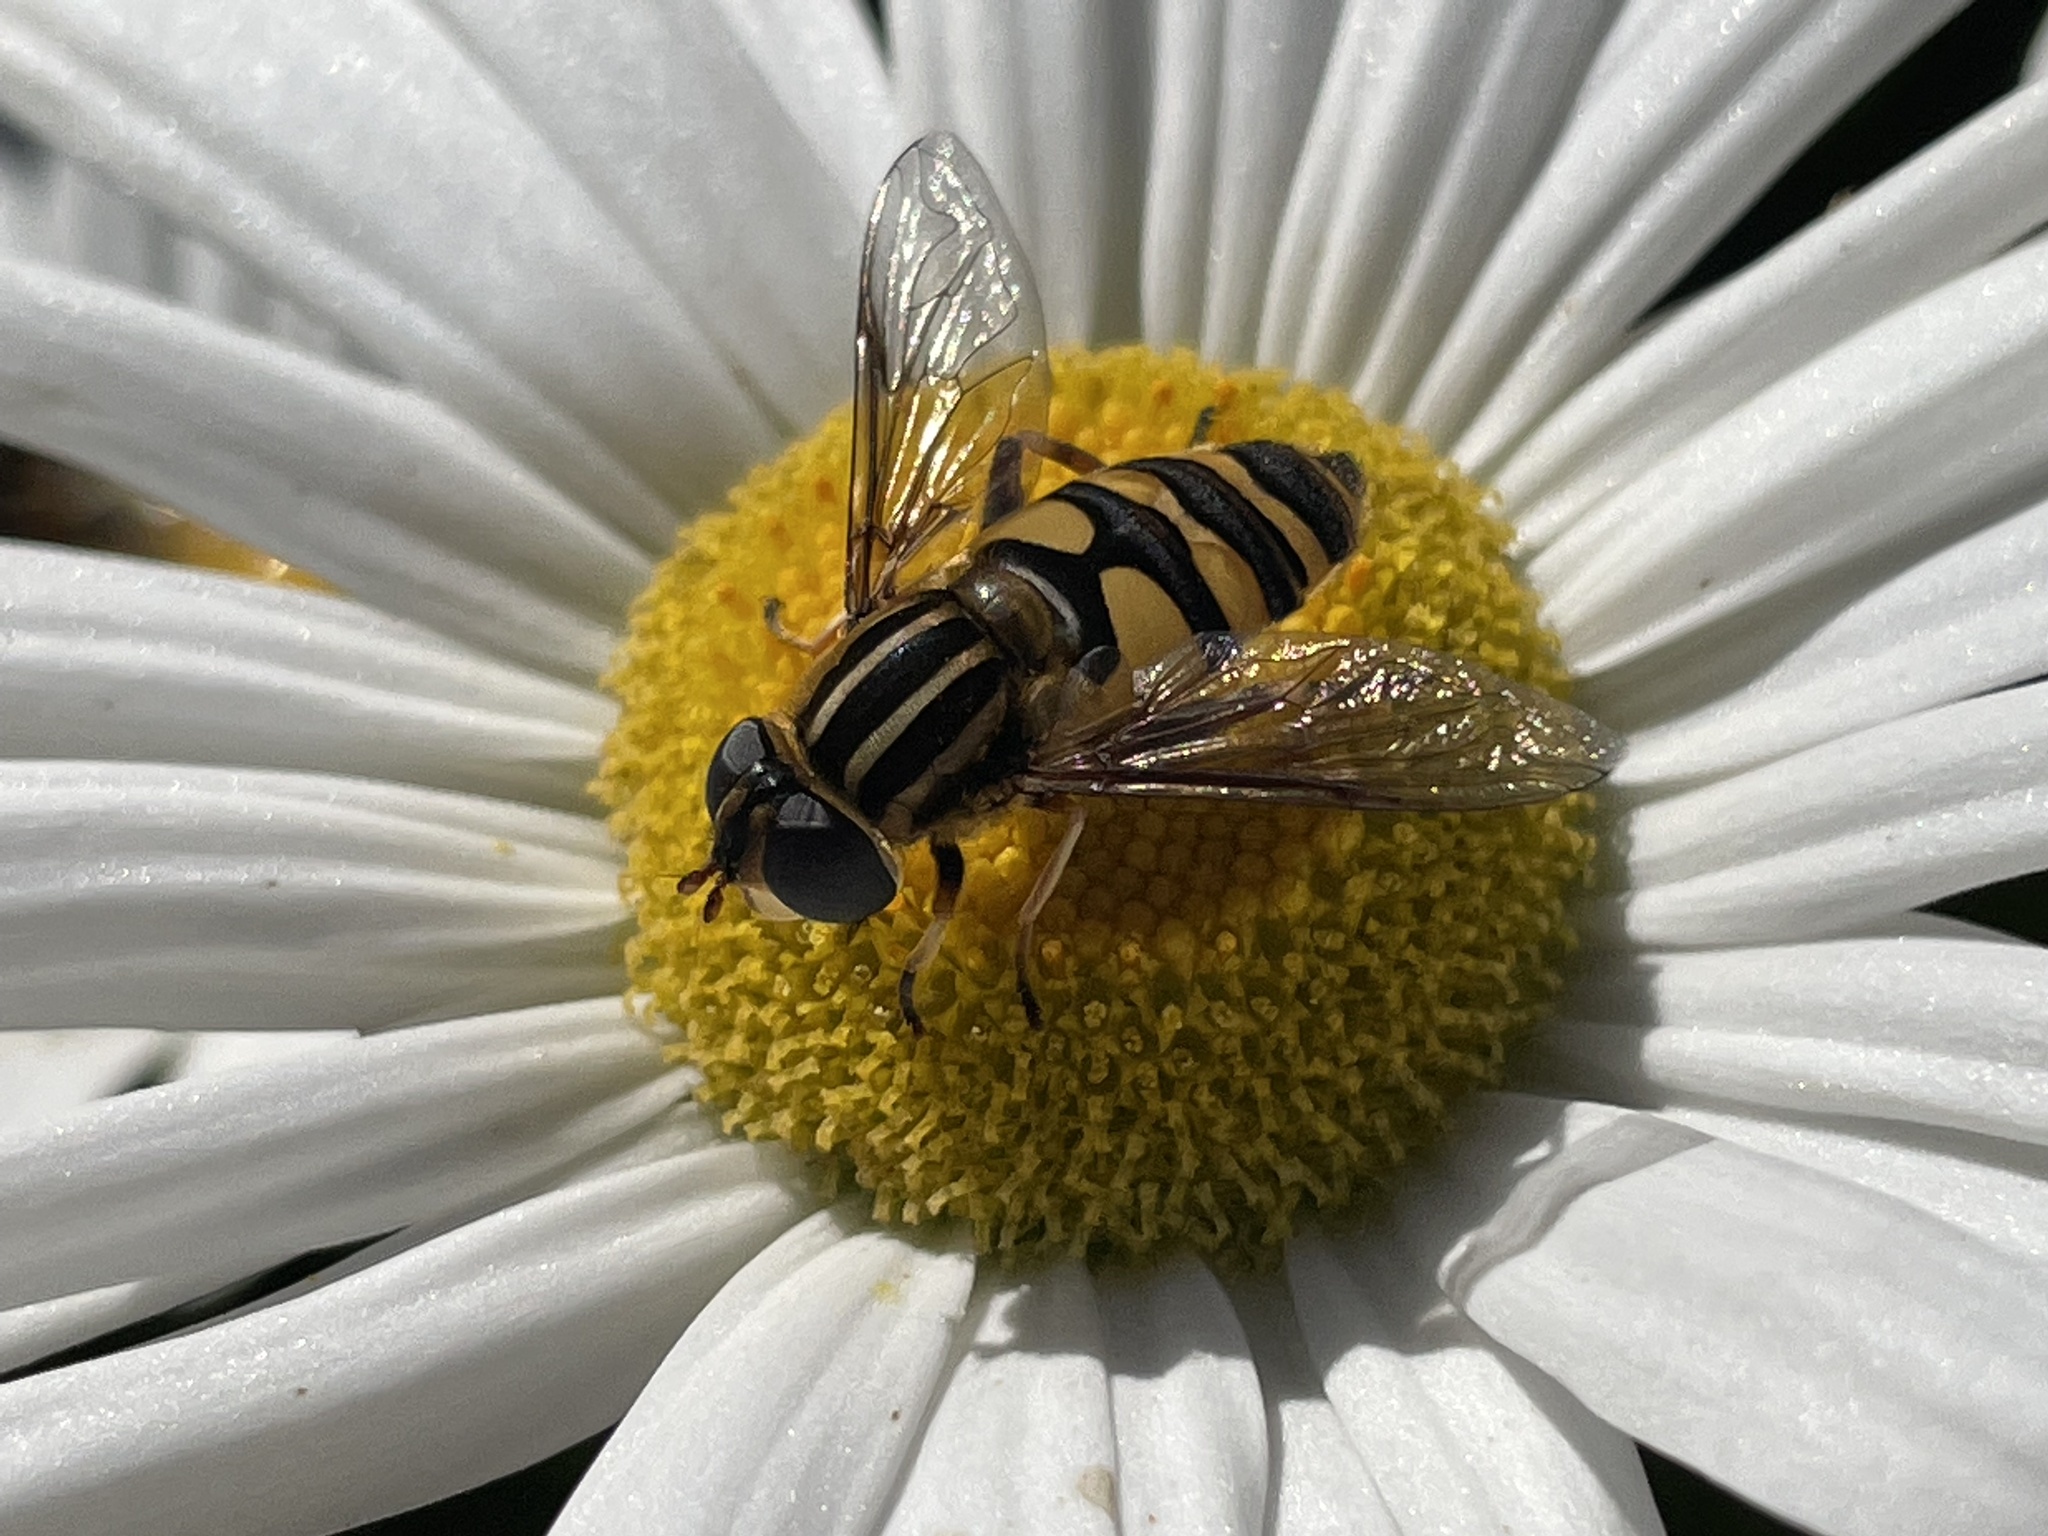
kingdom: Animalia
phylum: Arthropoda
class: Insecta
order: Diptera
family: Syrphidae
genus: Helophilus
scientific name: Helophilus fasciatus
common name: Narrow-headed marsh fly
